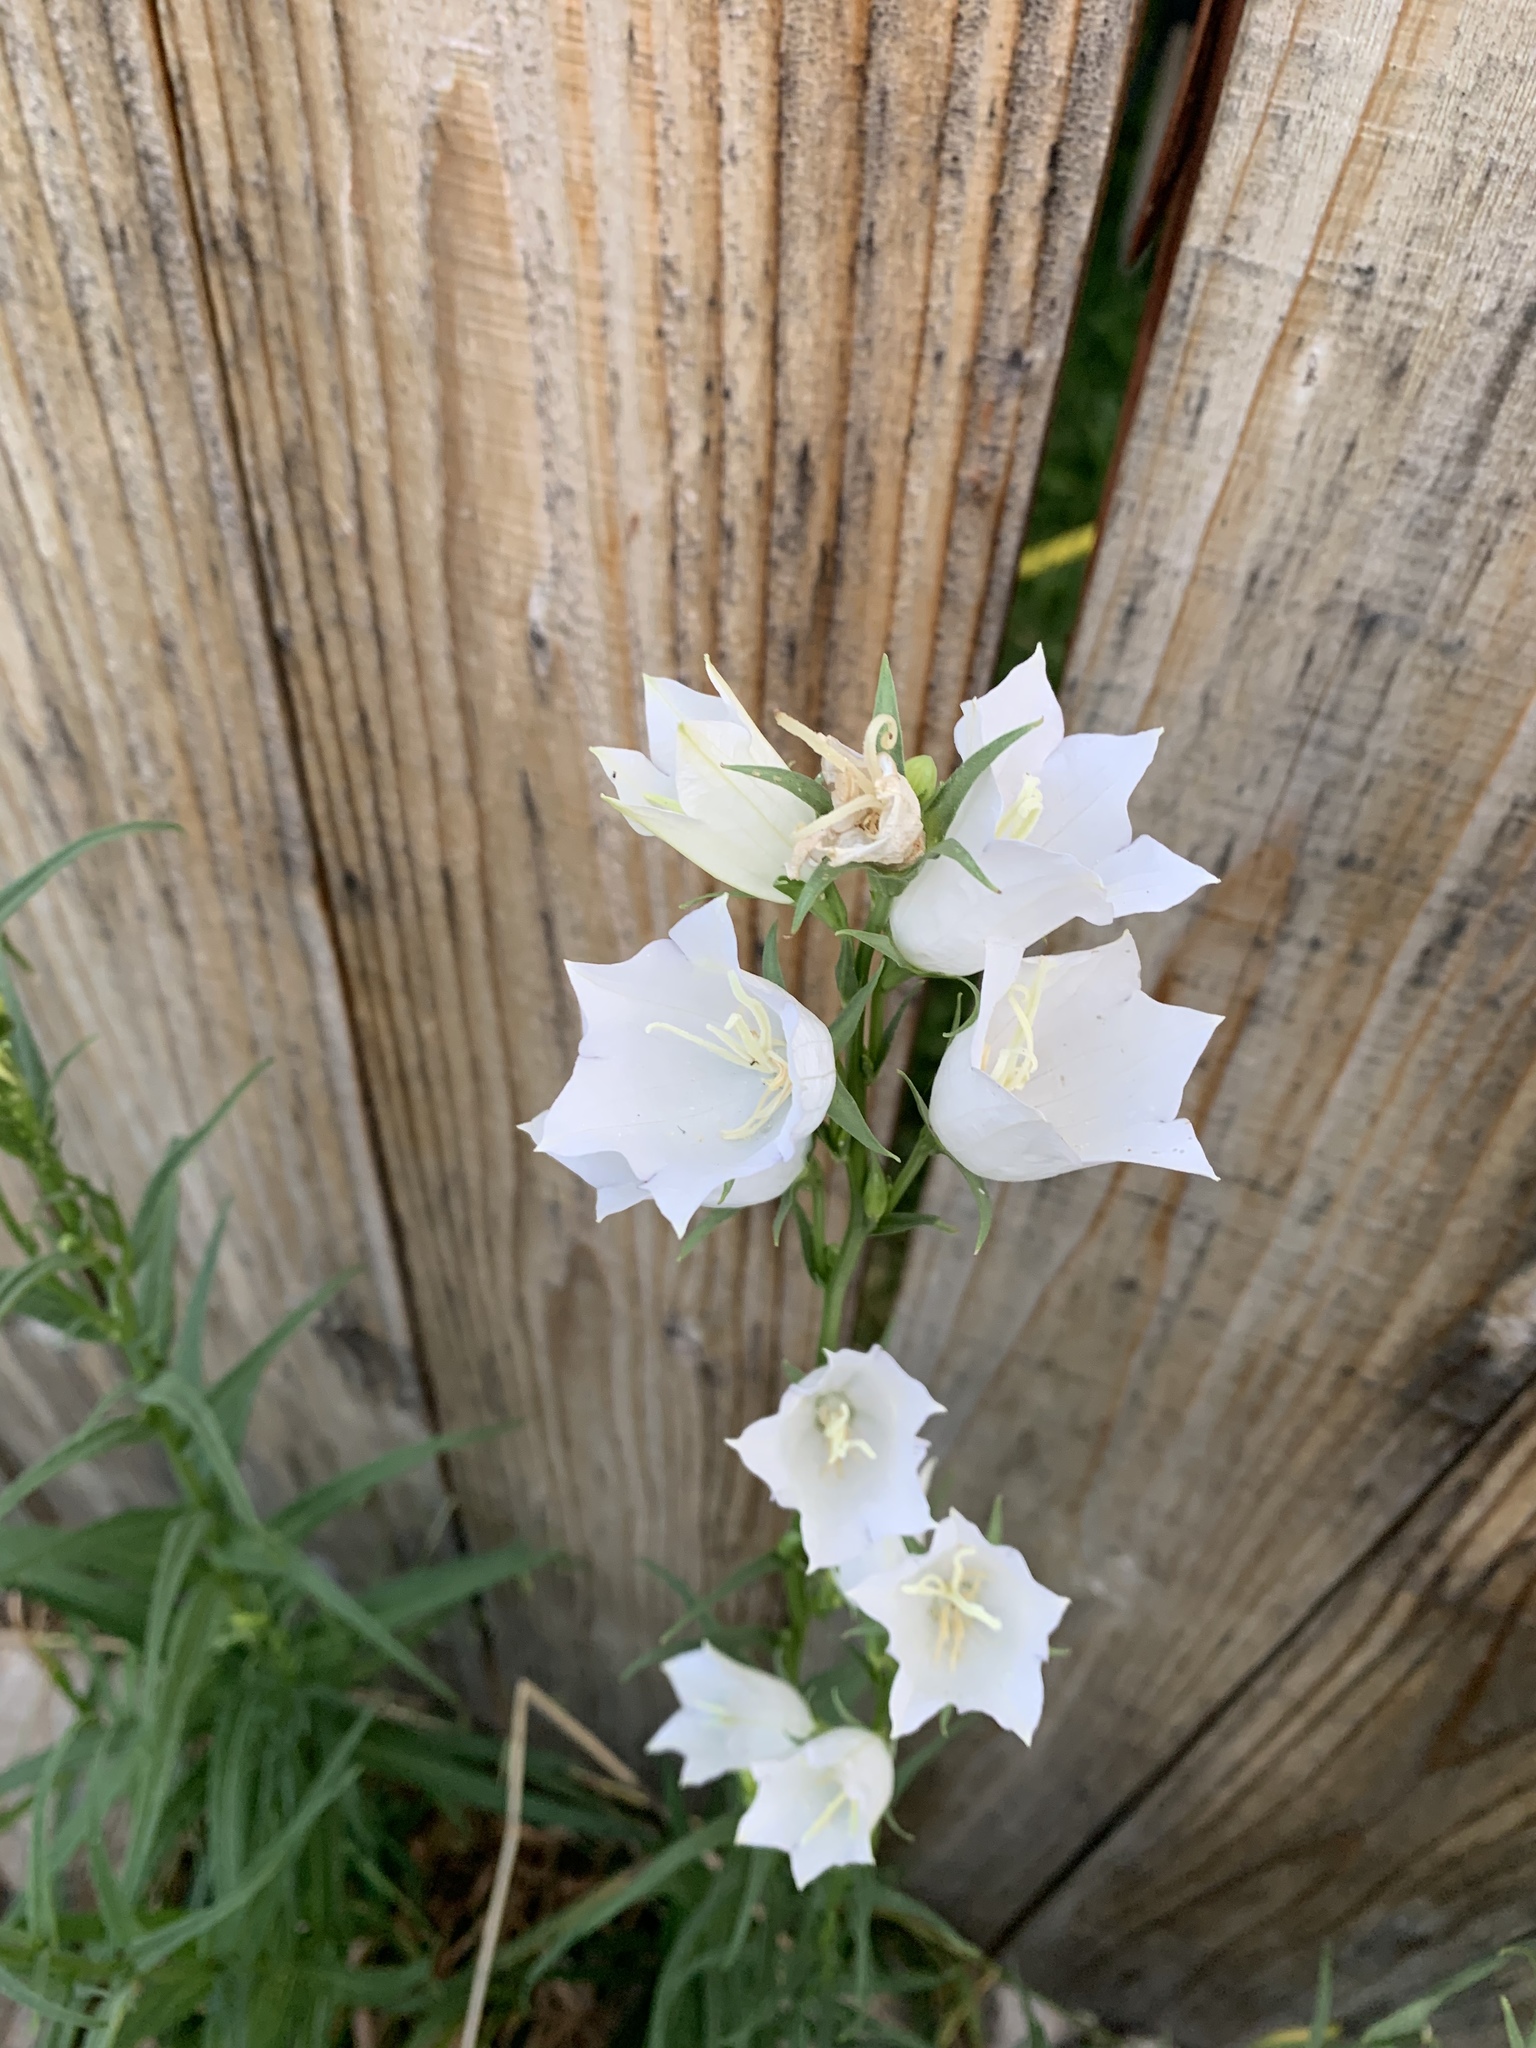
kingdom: Plantae
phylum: Tracheophyta
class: Magnoliopsida
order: Asterales
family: Campanulaceae
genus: Campanula
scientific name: Campanula persicifolia
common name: Peach-leaved bellflower
